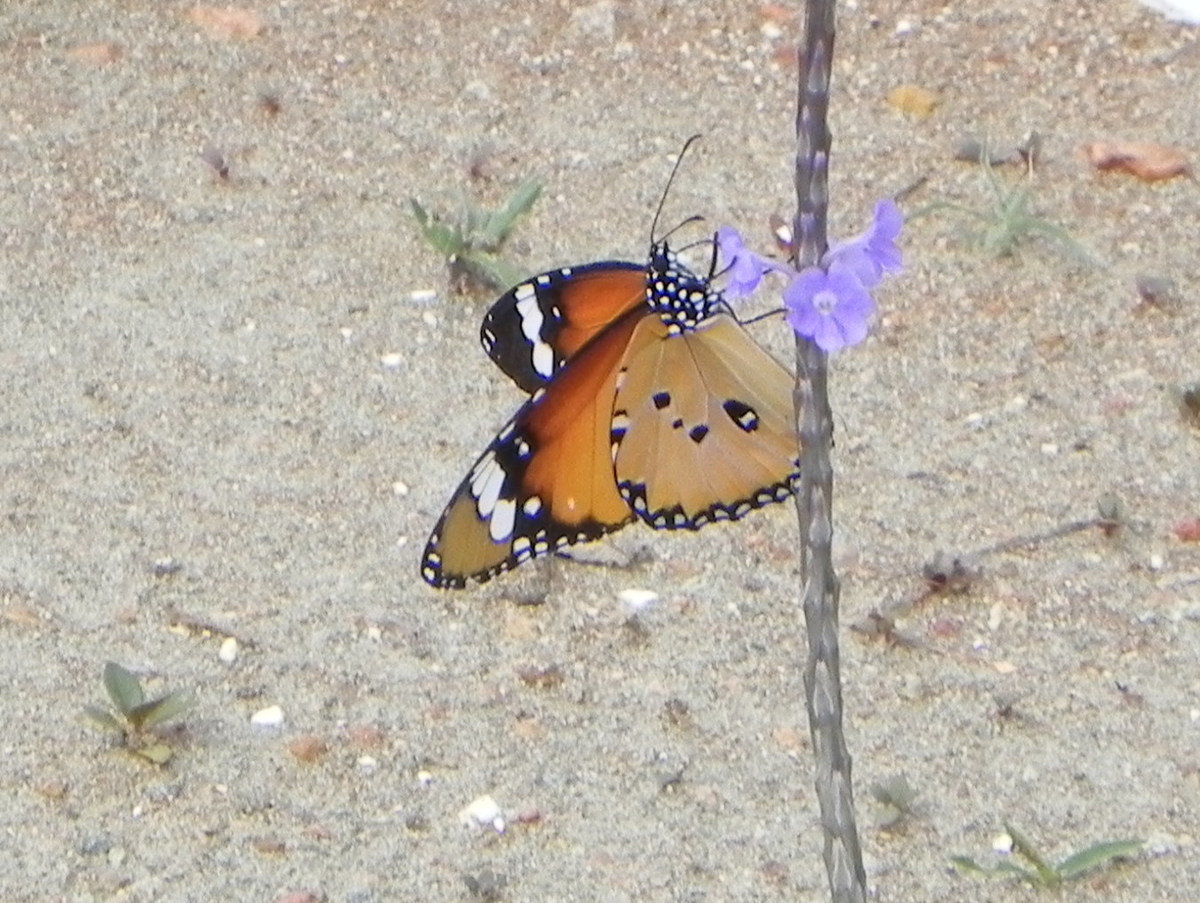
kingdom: Animalia
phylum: Arthropoda
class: Insecta
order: Lepidoptera
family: Nymphalidae
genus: Danaus
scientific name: Danaus chrysippus
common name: Plain tiger
